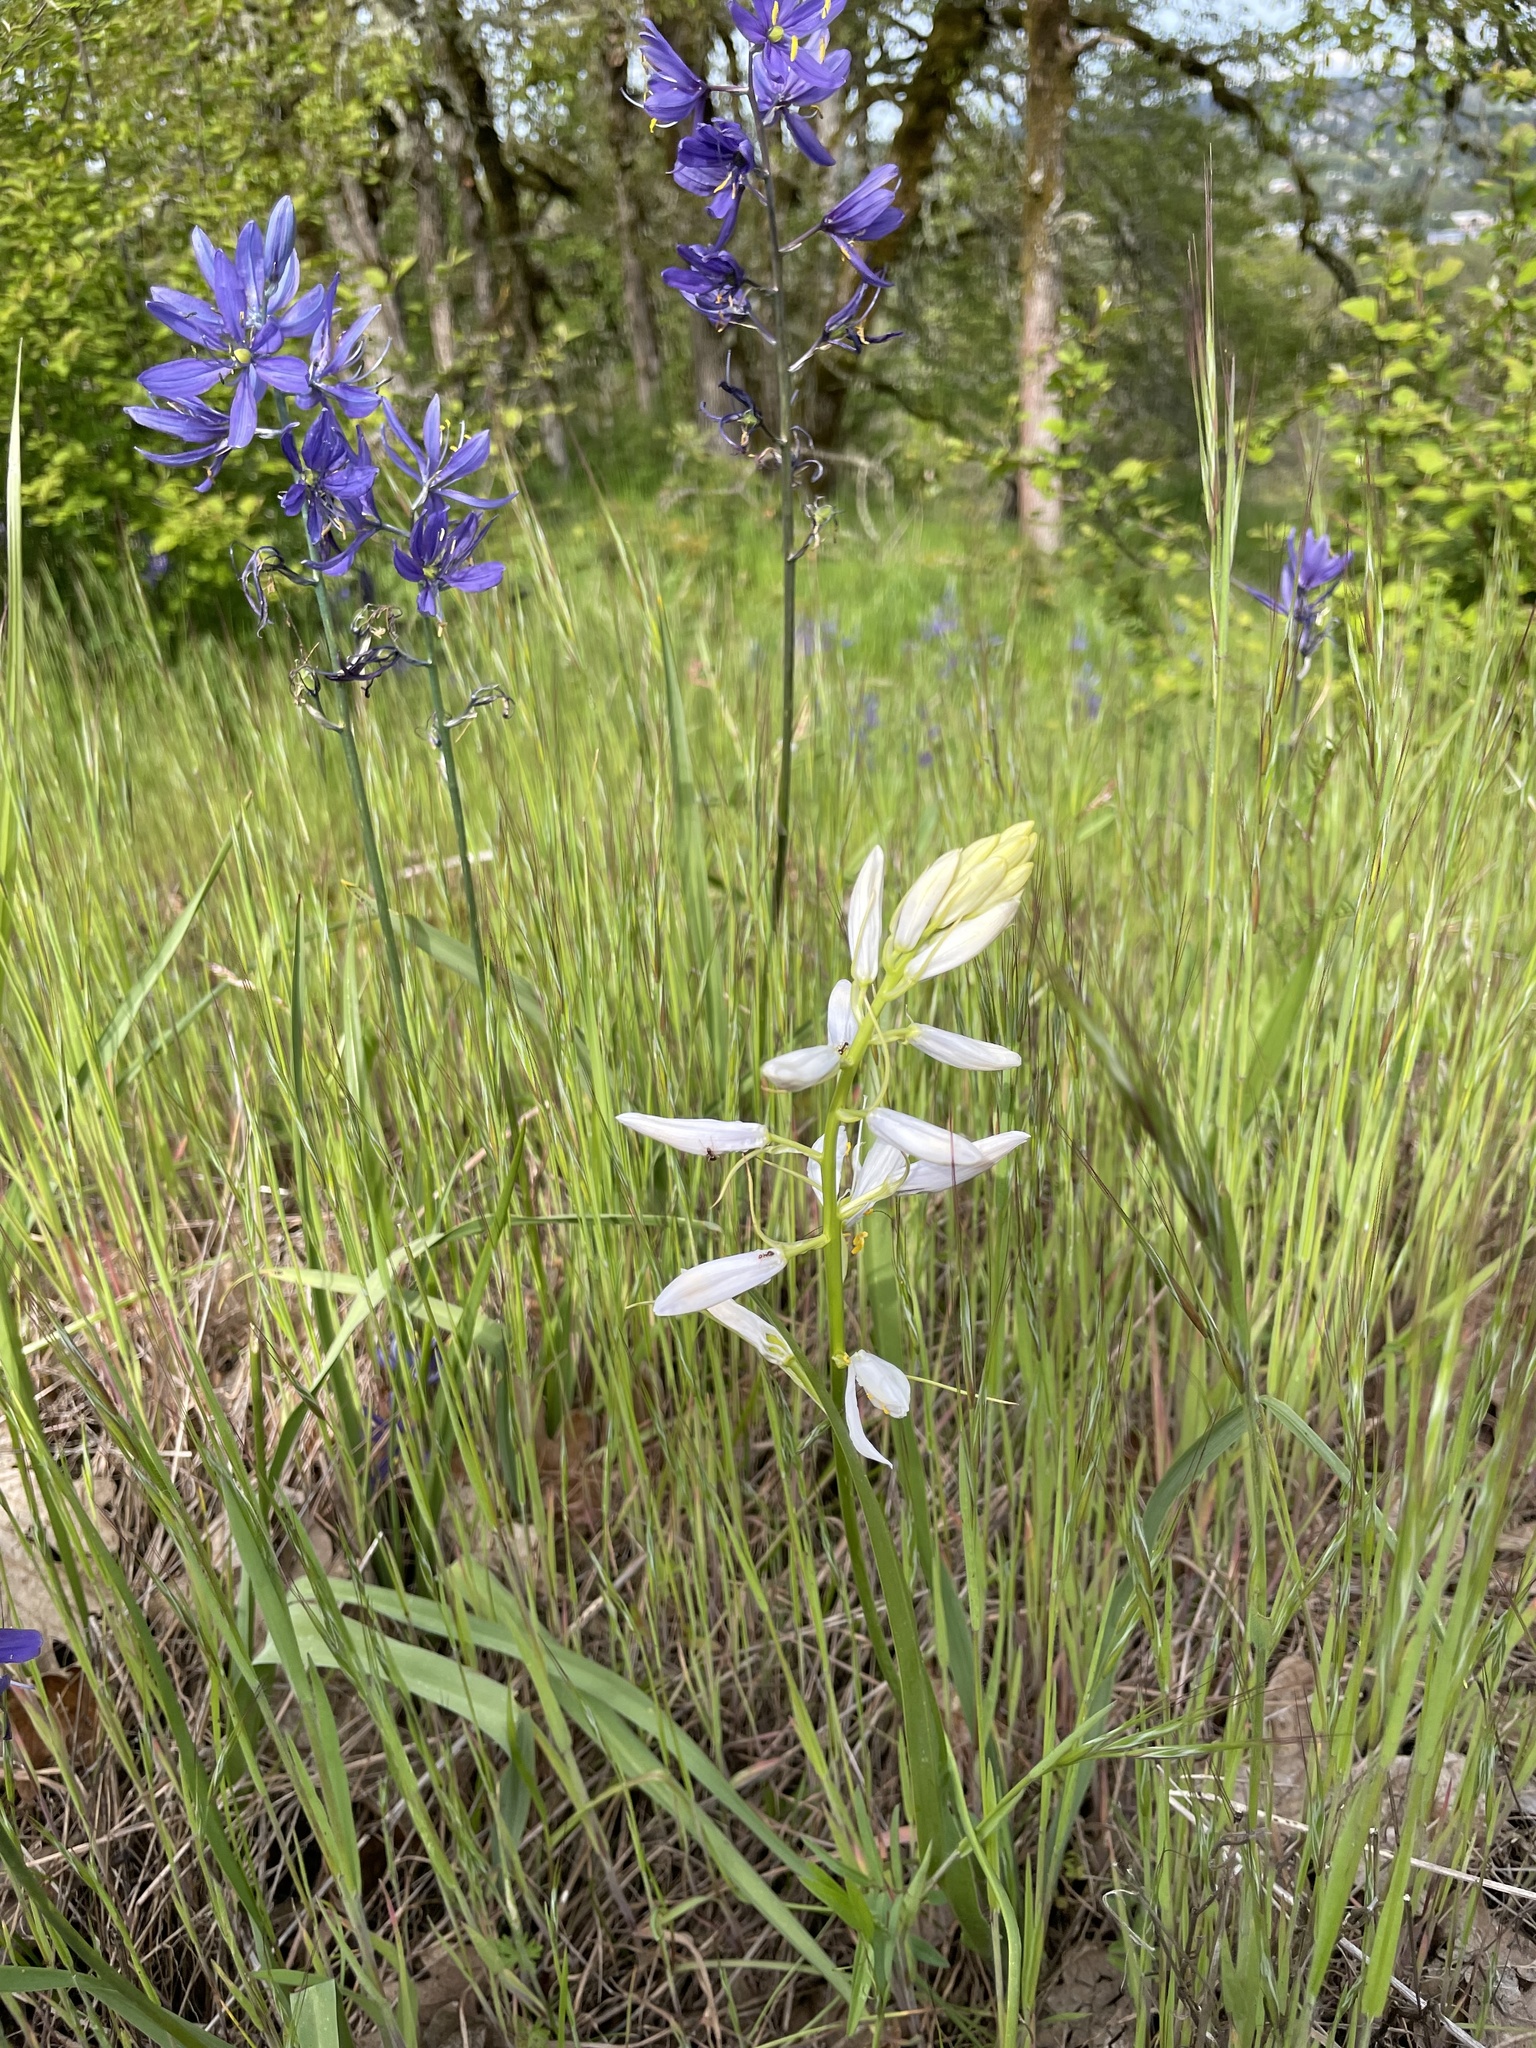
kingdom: Plantae
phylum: Tracheophyta
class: Liliopsida
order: Asparagales
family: Asparagaceae
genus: Camassia
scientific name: Camassia quamash
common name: Common camas
